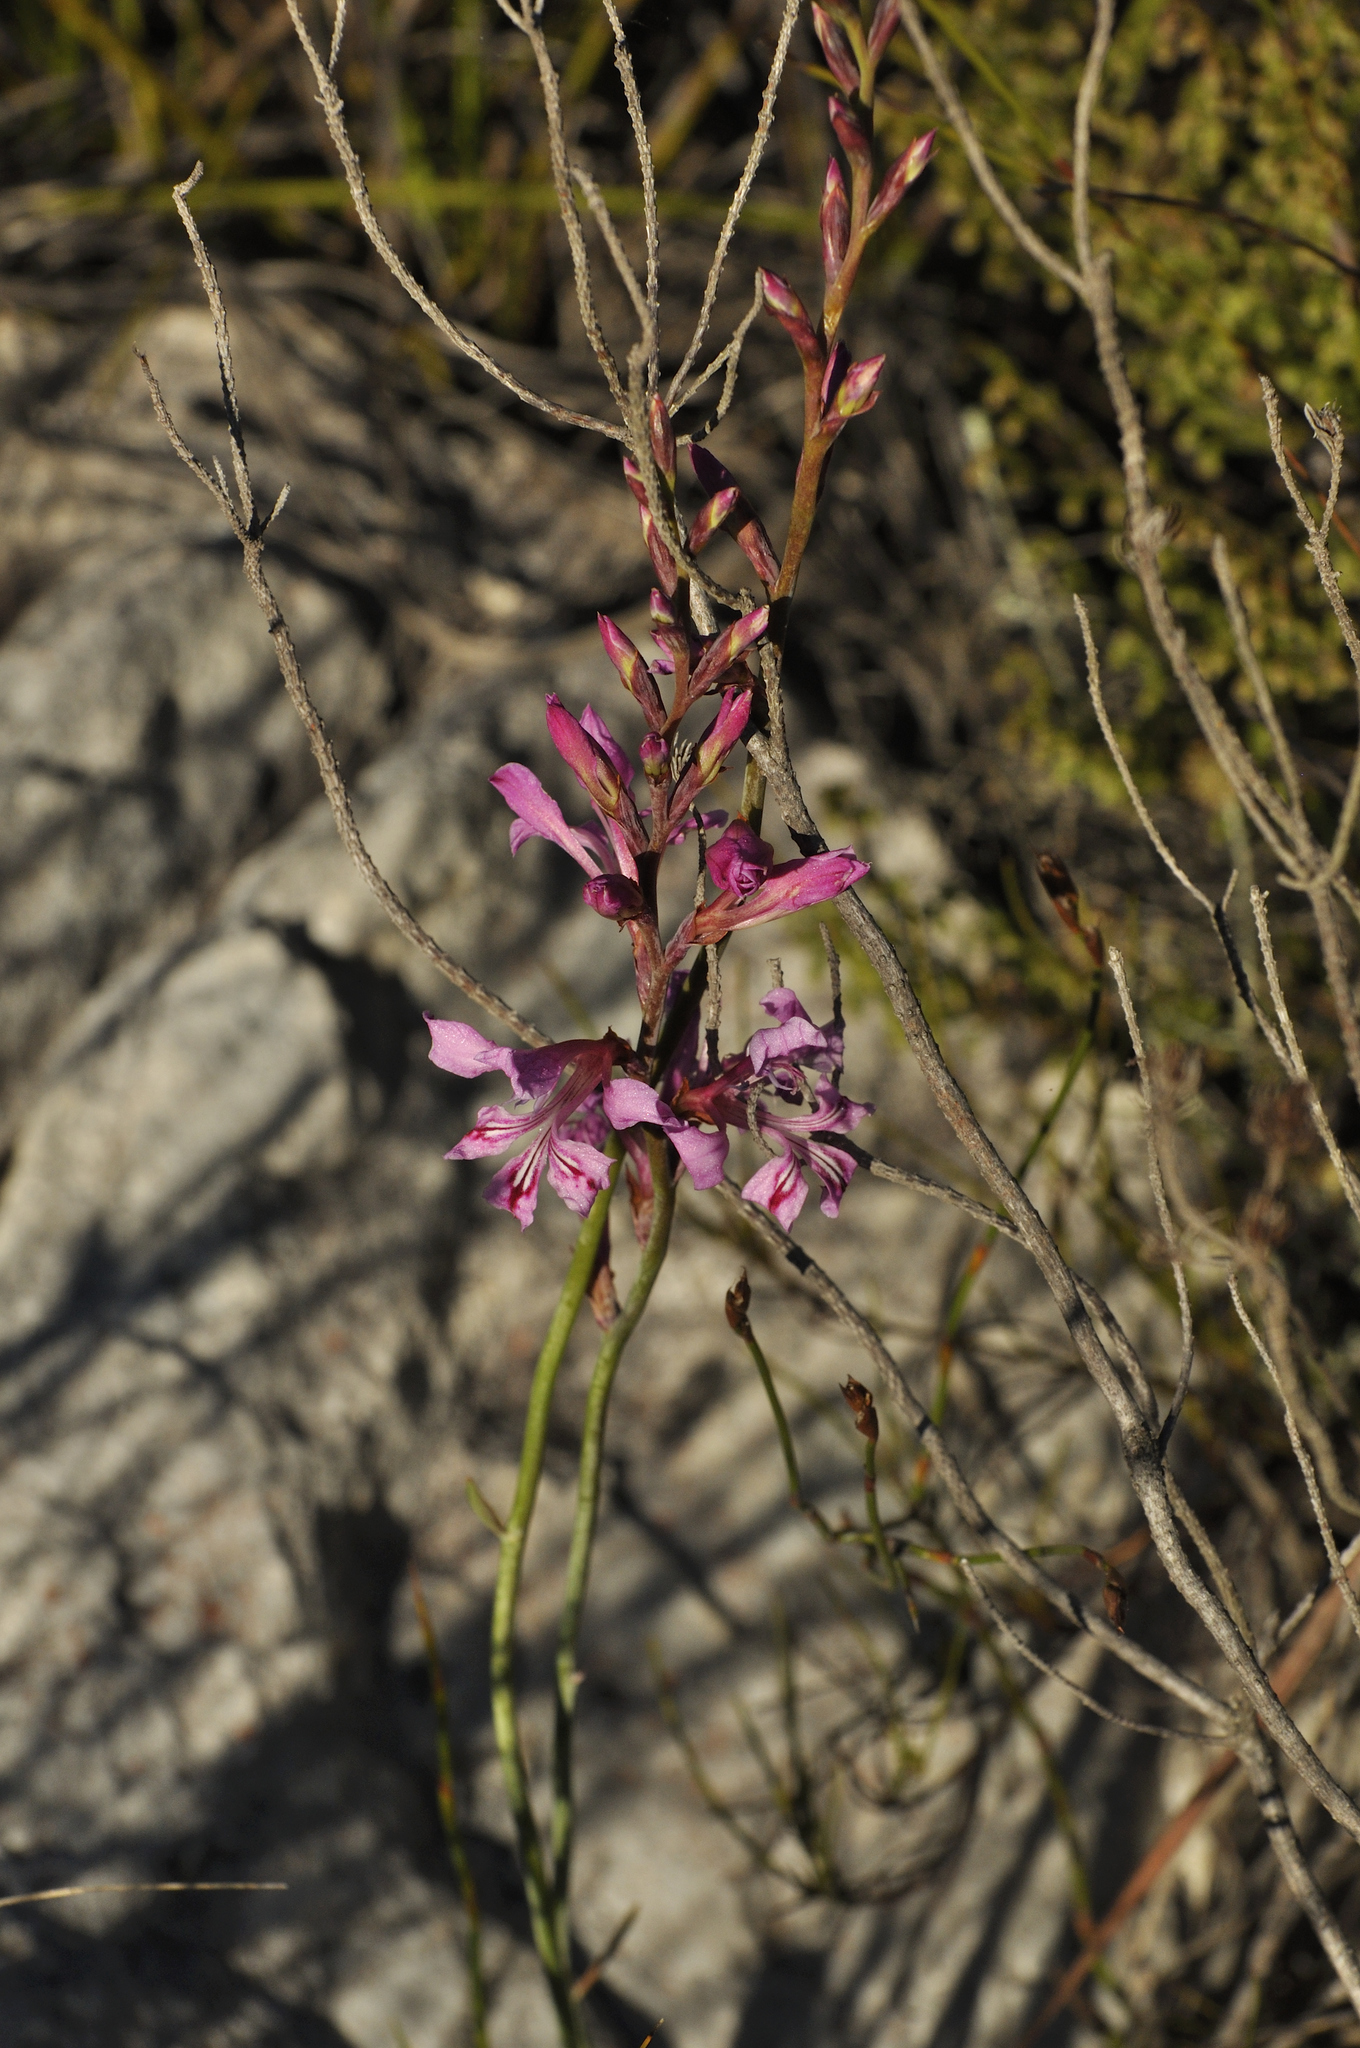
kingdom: Plantae
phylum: Tracheophyta
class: Liliopsida
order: Asparagales
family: Iridaceae
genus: Tritoniopsis
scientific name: Tritoniopsis lata
